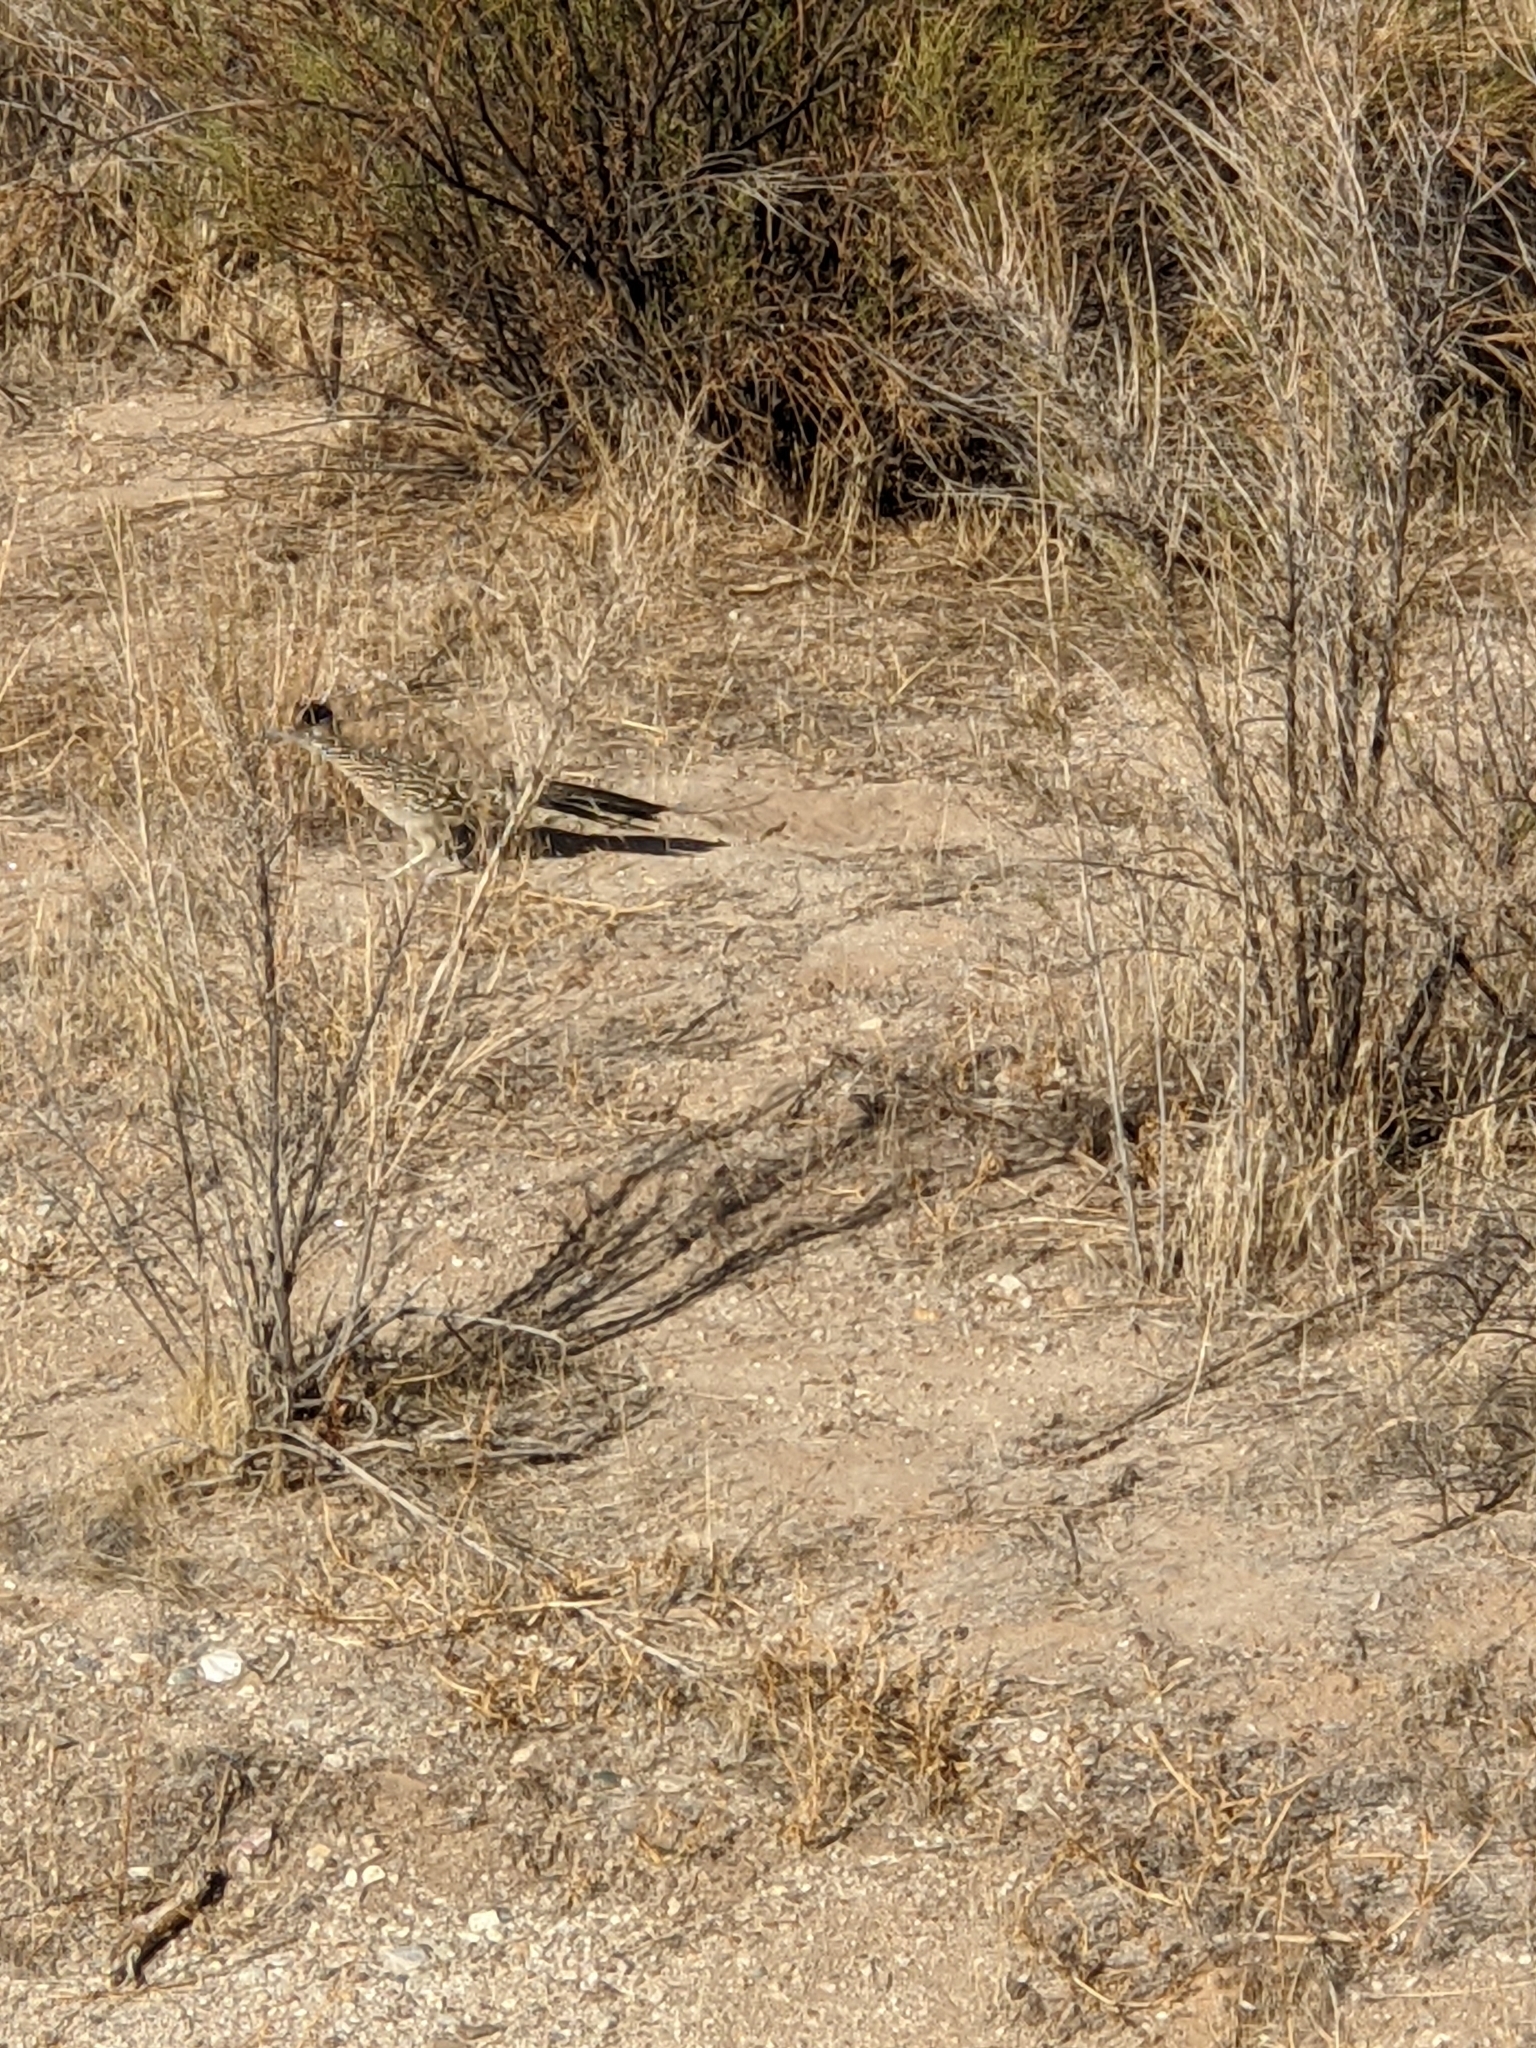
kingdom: Animalia
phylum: Chordata
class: Aves
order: Cuculiformes
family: Cuculidae
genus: Geococcyx
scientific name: Geococcyx californianus
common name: Greater roadrunner
